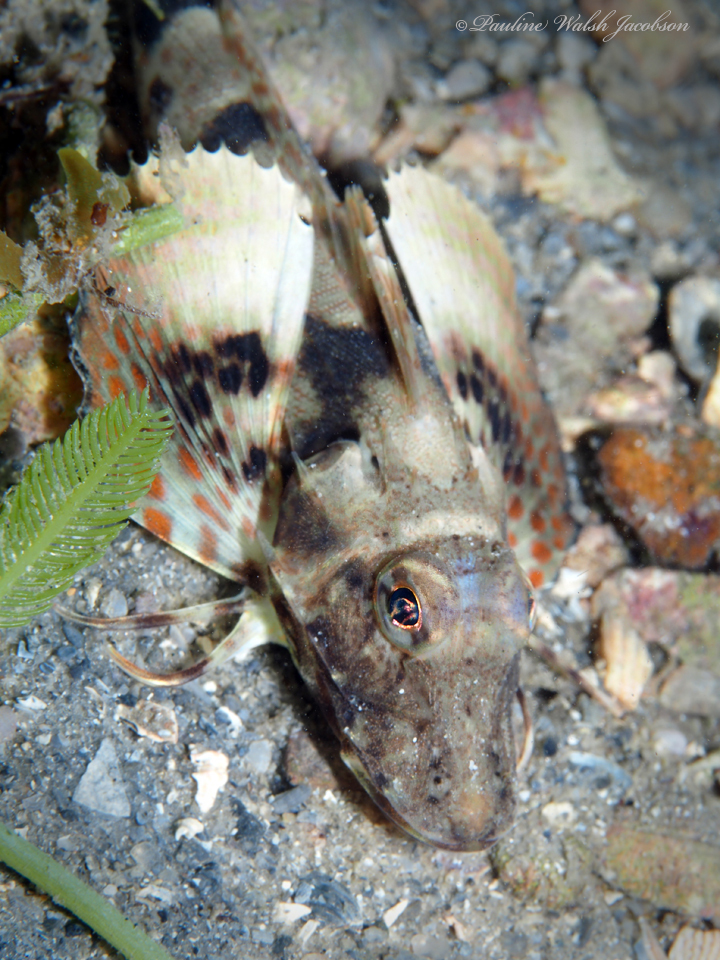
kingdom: Animalia
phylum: Chordata
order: Scorpaeniformes
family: Triglidae
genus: Prionotus
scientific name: Prionotus carolinus
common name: Northern searobin
